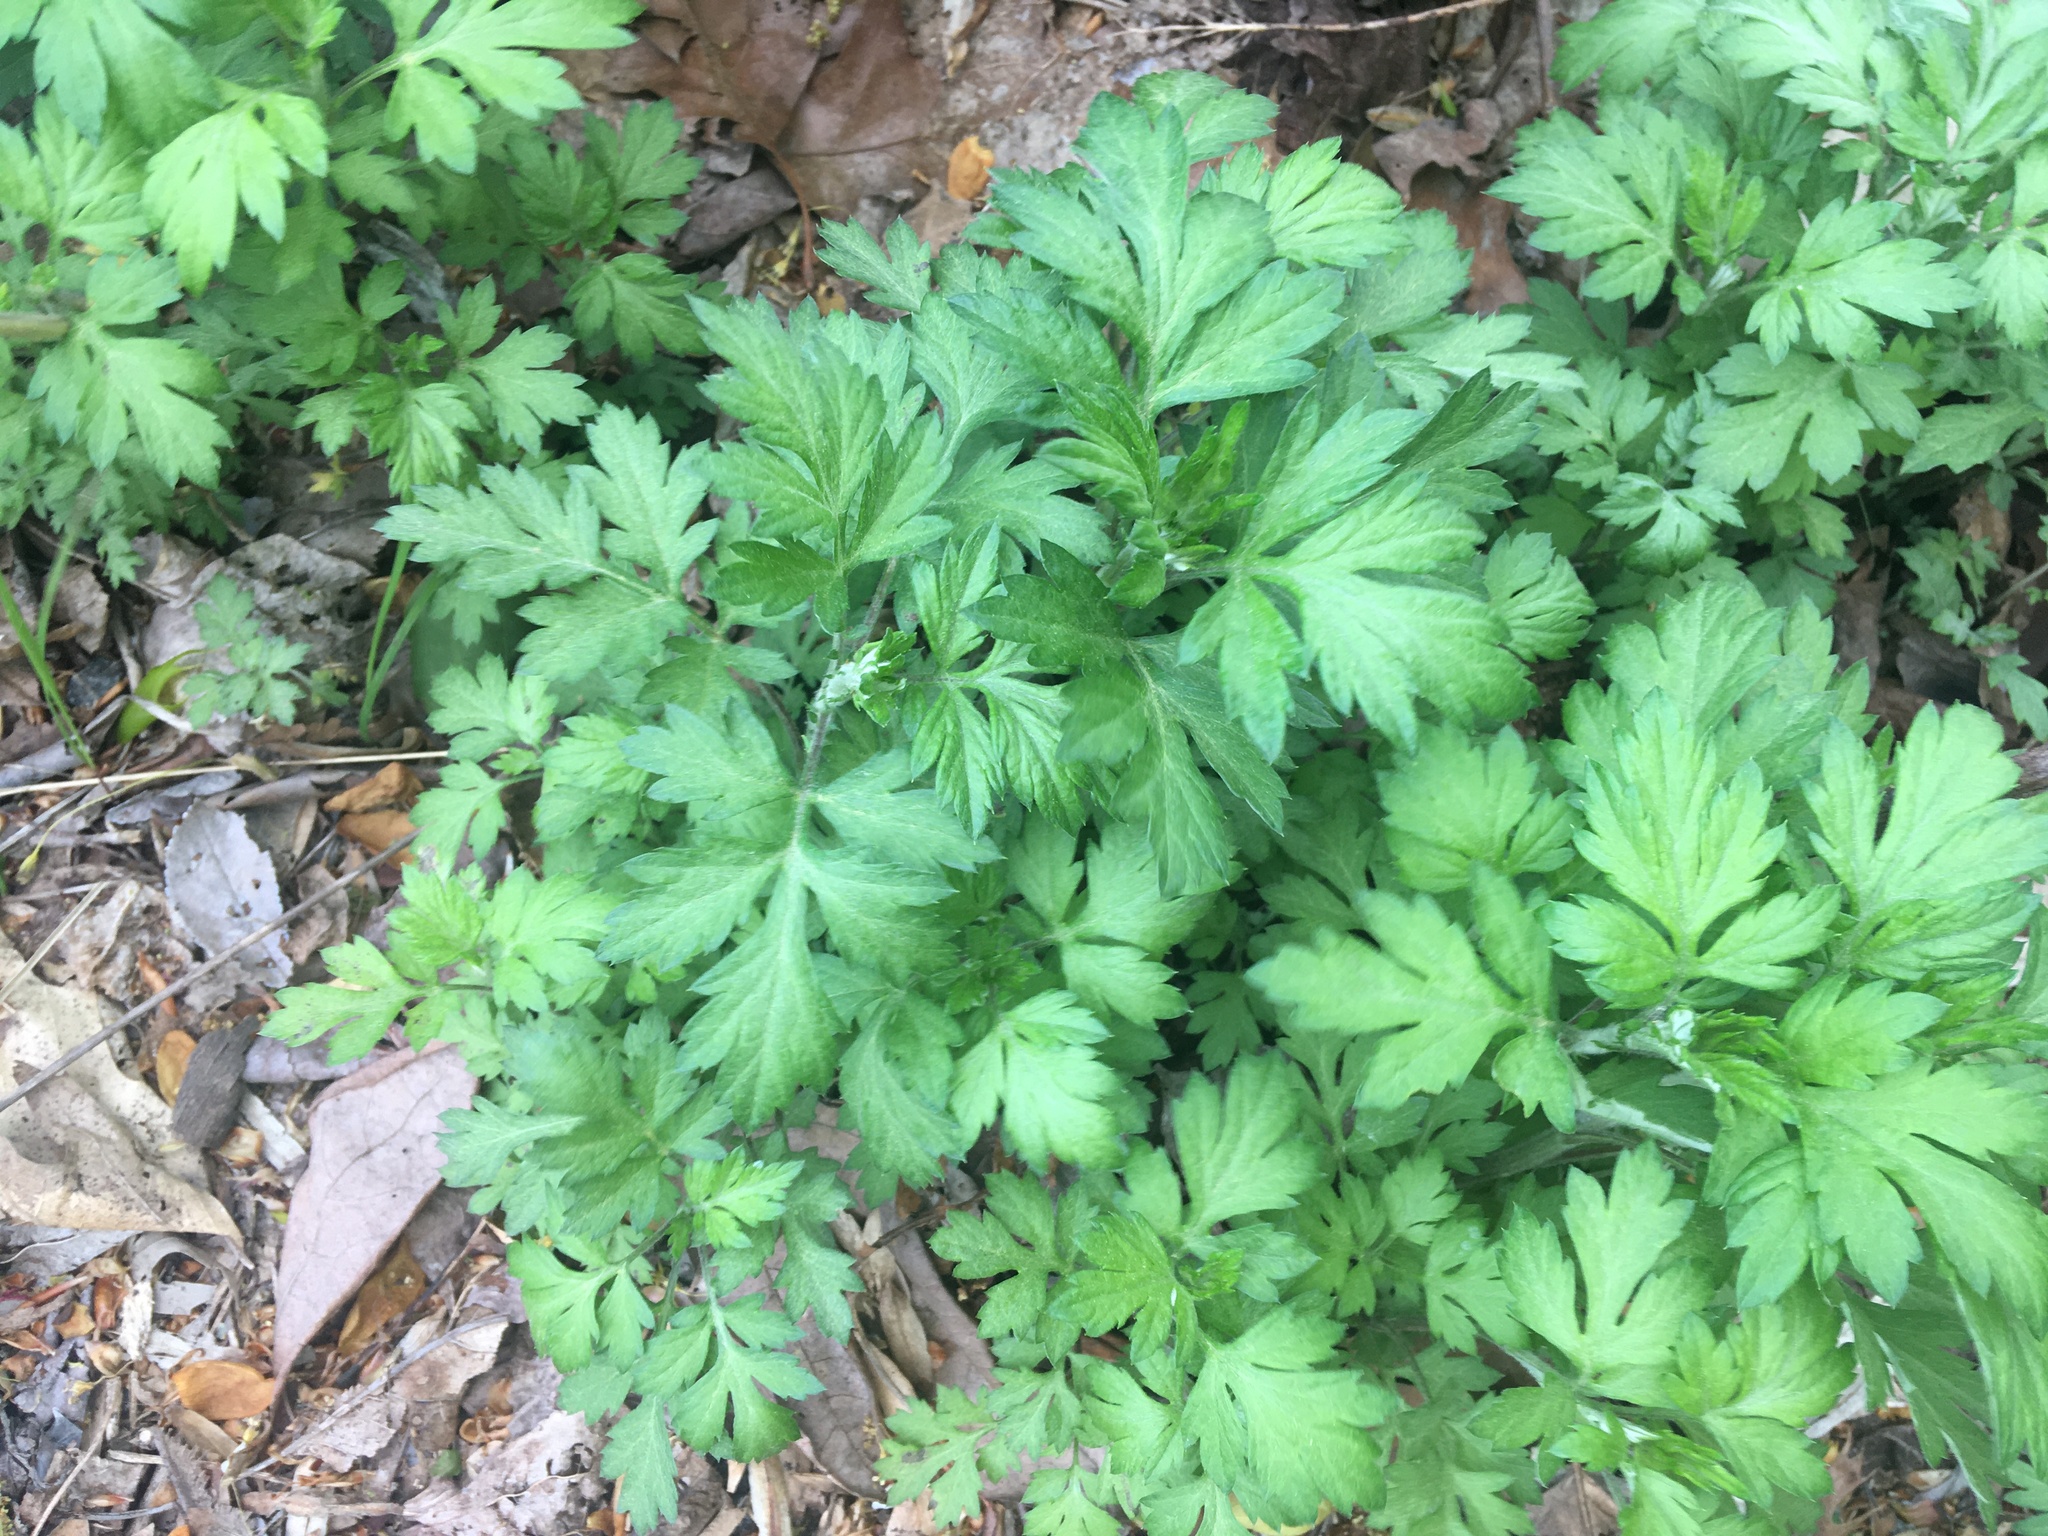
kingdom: Plantae
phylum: Tracheophyta
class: Magnoliopsida
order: Asterales
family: Asteraceae
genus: Artemisia
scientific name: Artemisia vulgaris
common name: Mugwort
